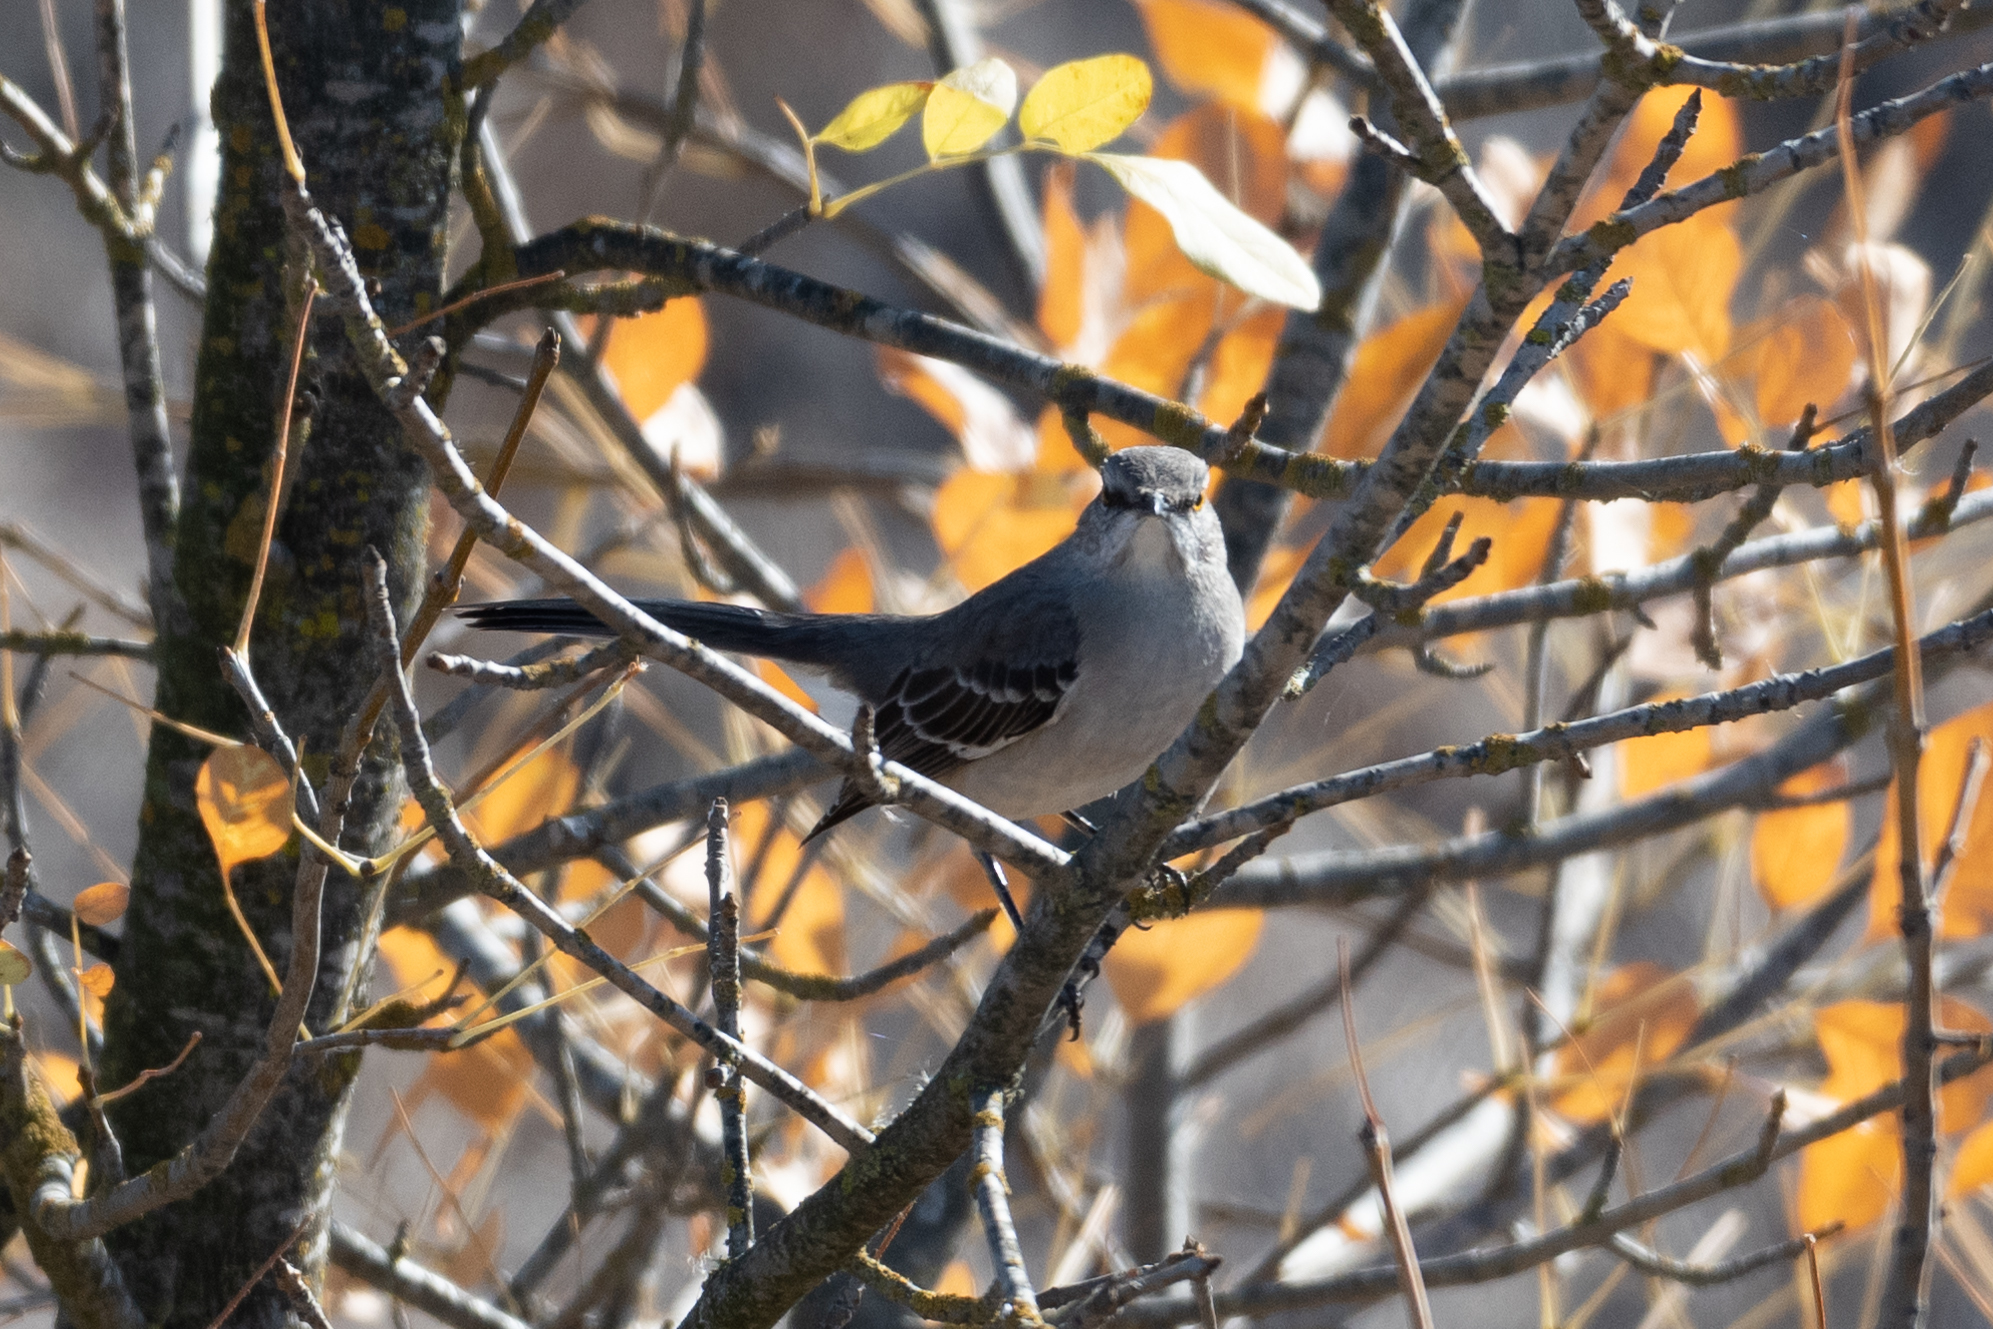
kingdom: Animalia
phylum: Chordata
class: Aves
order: Passeriformes
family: Mimidae
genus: Mimus
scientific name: Mimus polyglottos
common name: Northern mockingbird
